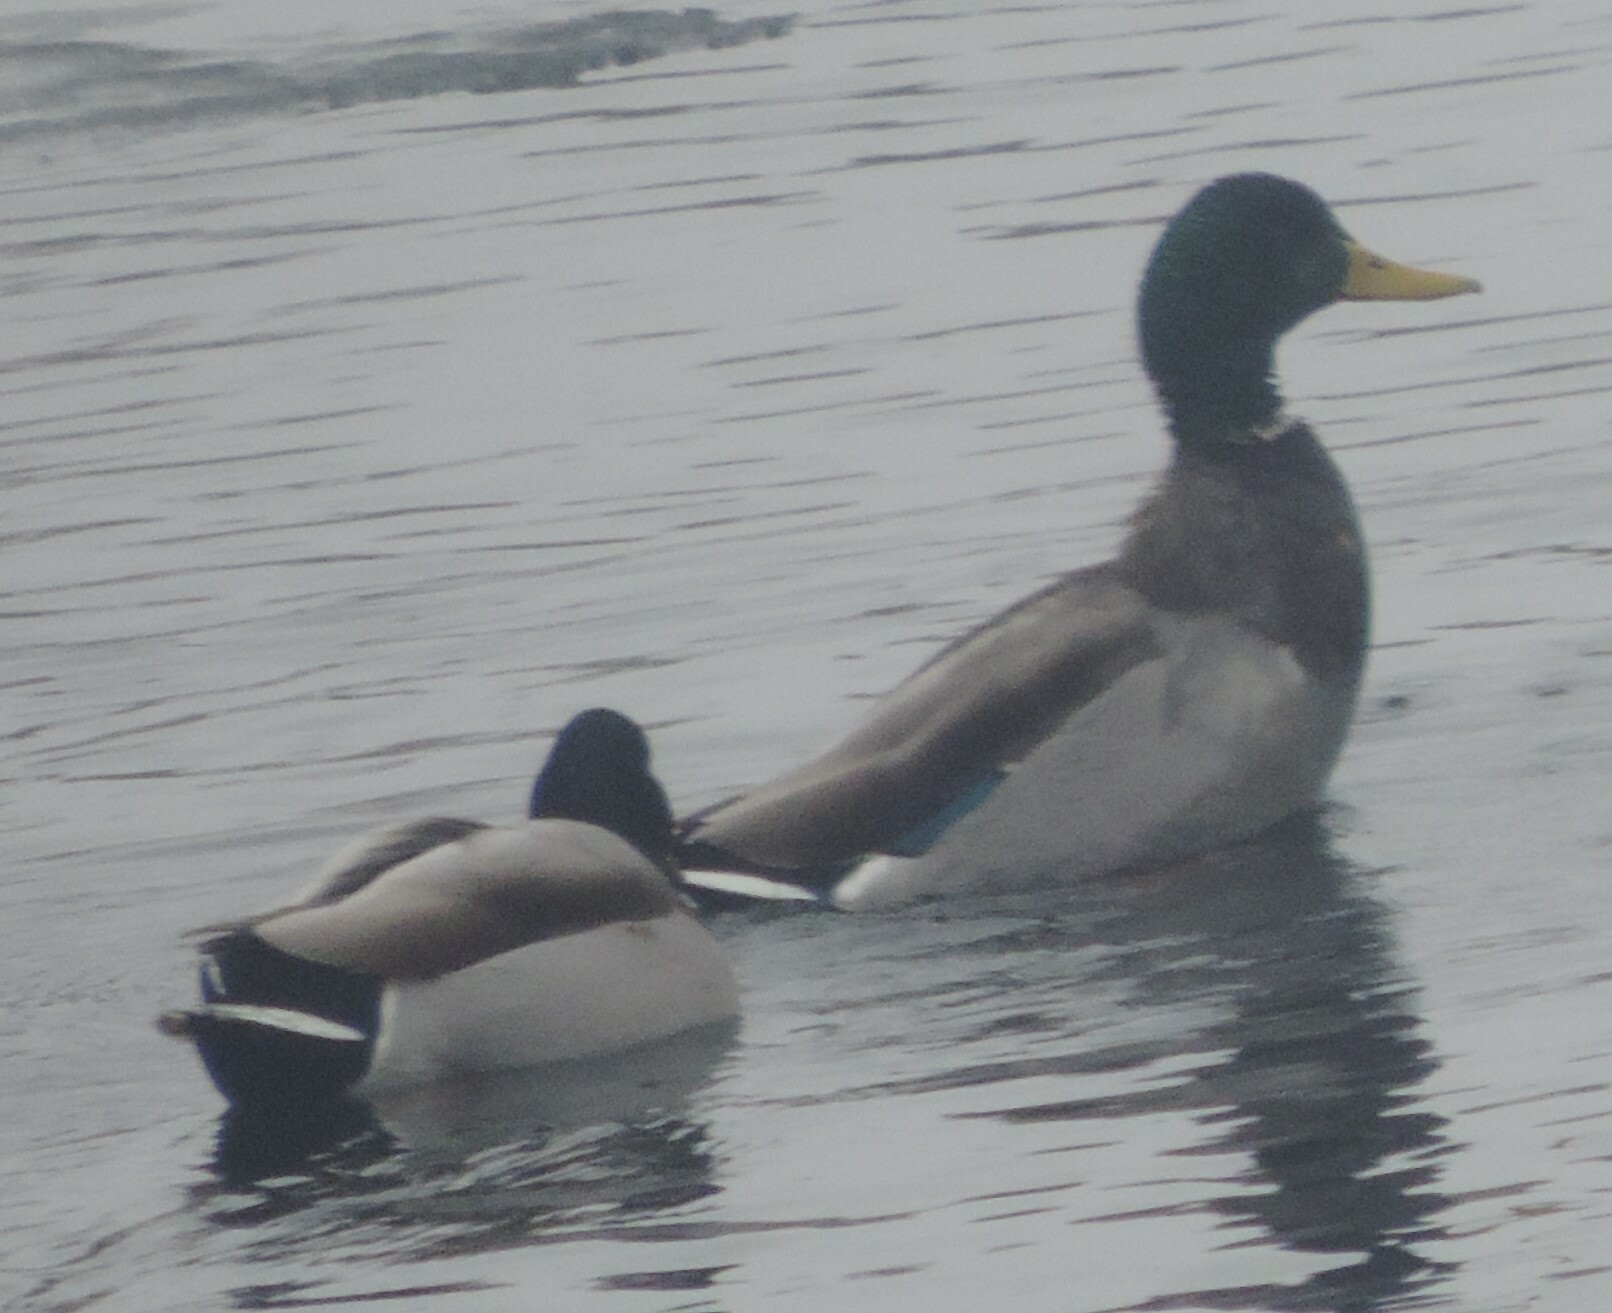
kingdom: Animalia
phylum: Chordata
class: Aves
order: Anseriformes
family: Anatidae
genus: Anas
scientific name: Anas platyrhynchos
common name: Mallard
